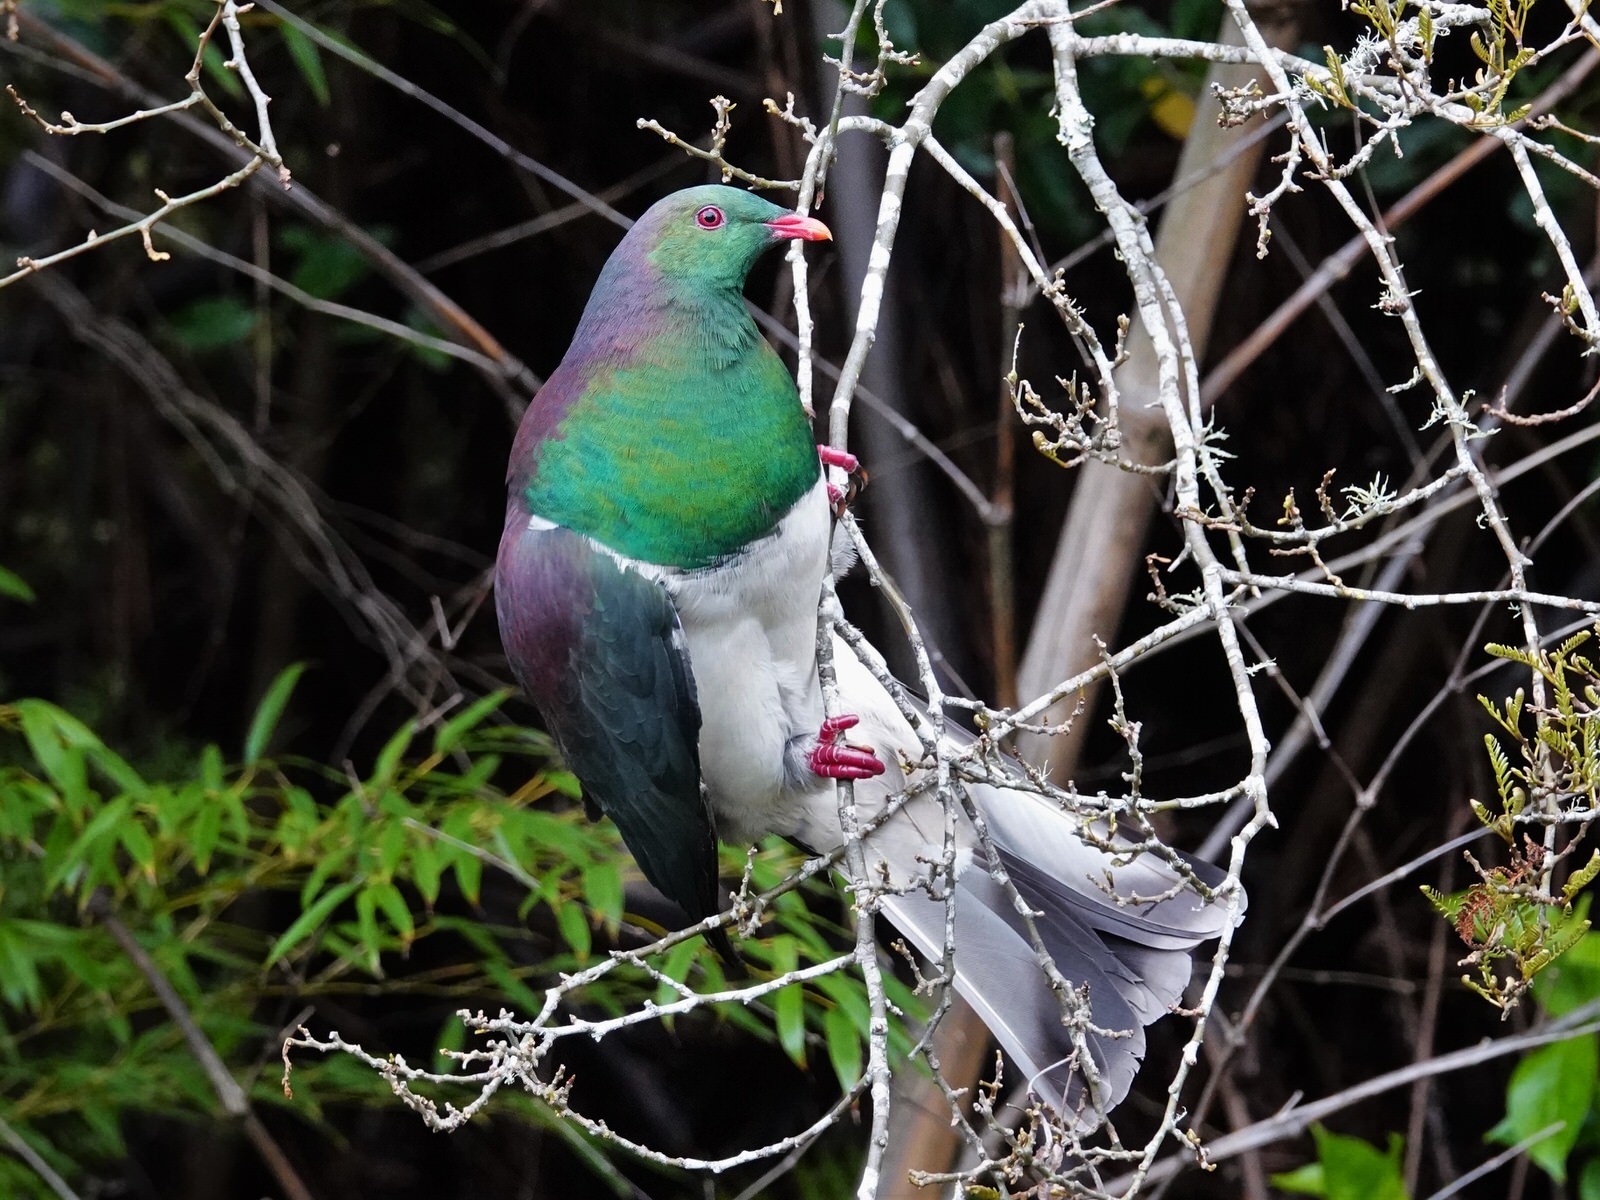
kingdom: Animalia
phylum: Chordata
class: Aves
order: Columbiformes
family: Columbidae
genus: Hemiphaga
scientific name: Hemiphaga novaeseelandiae
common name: New zealand pigeon
